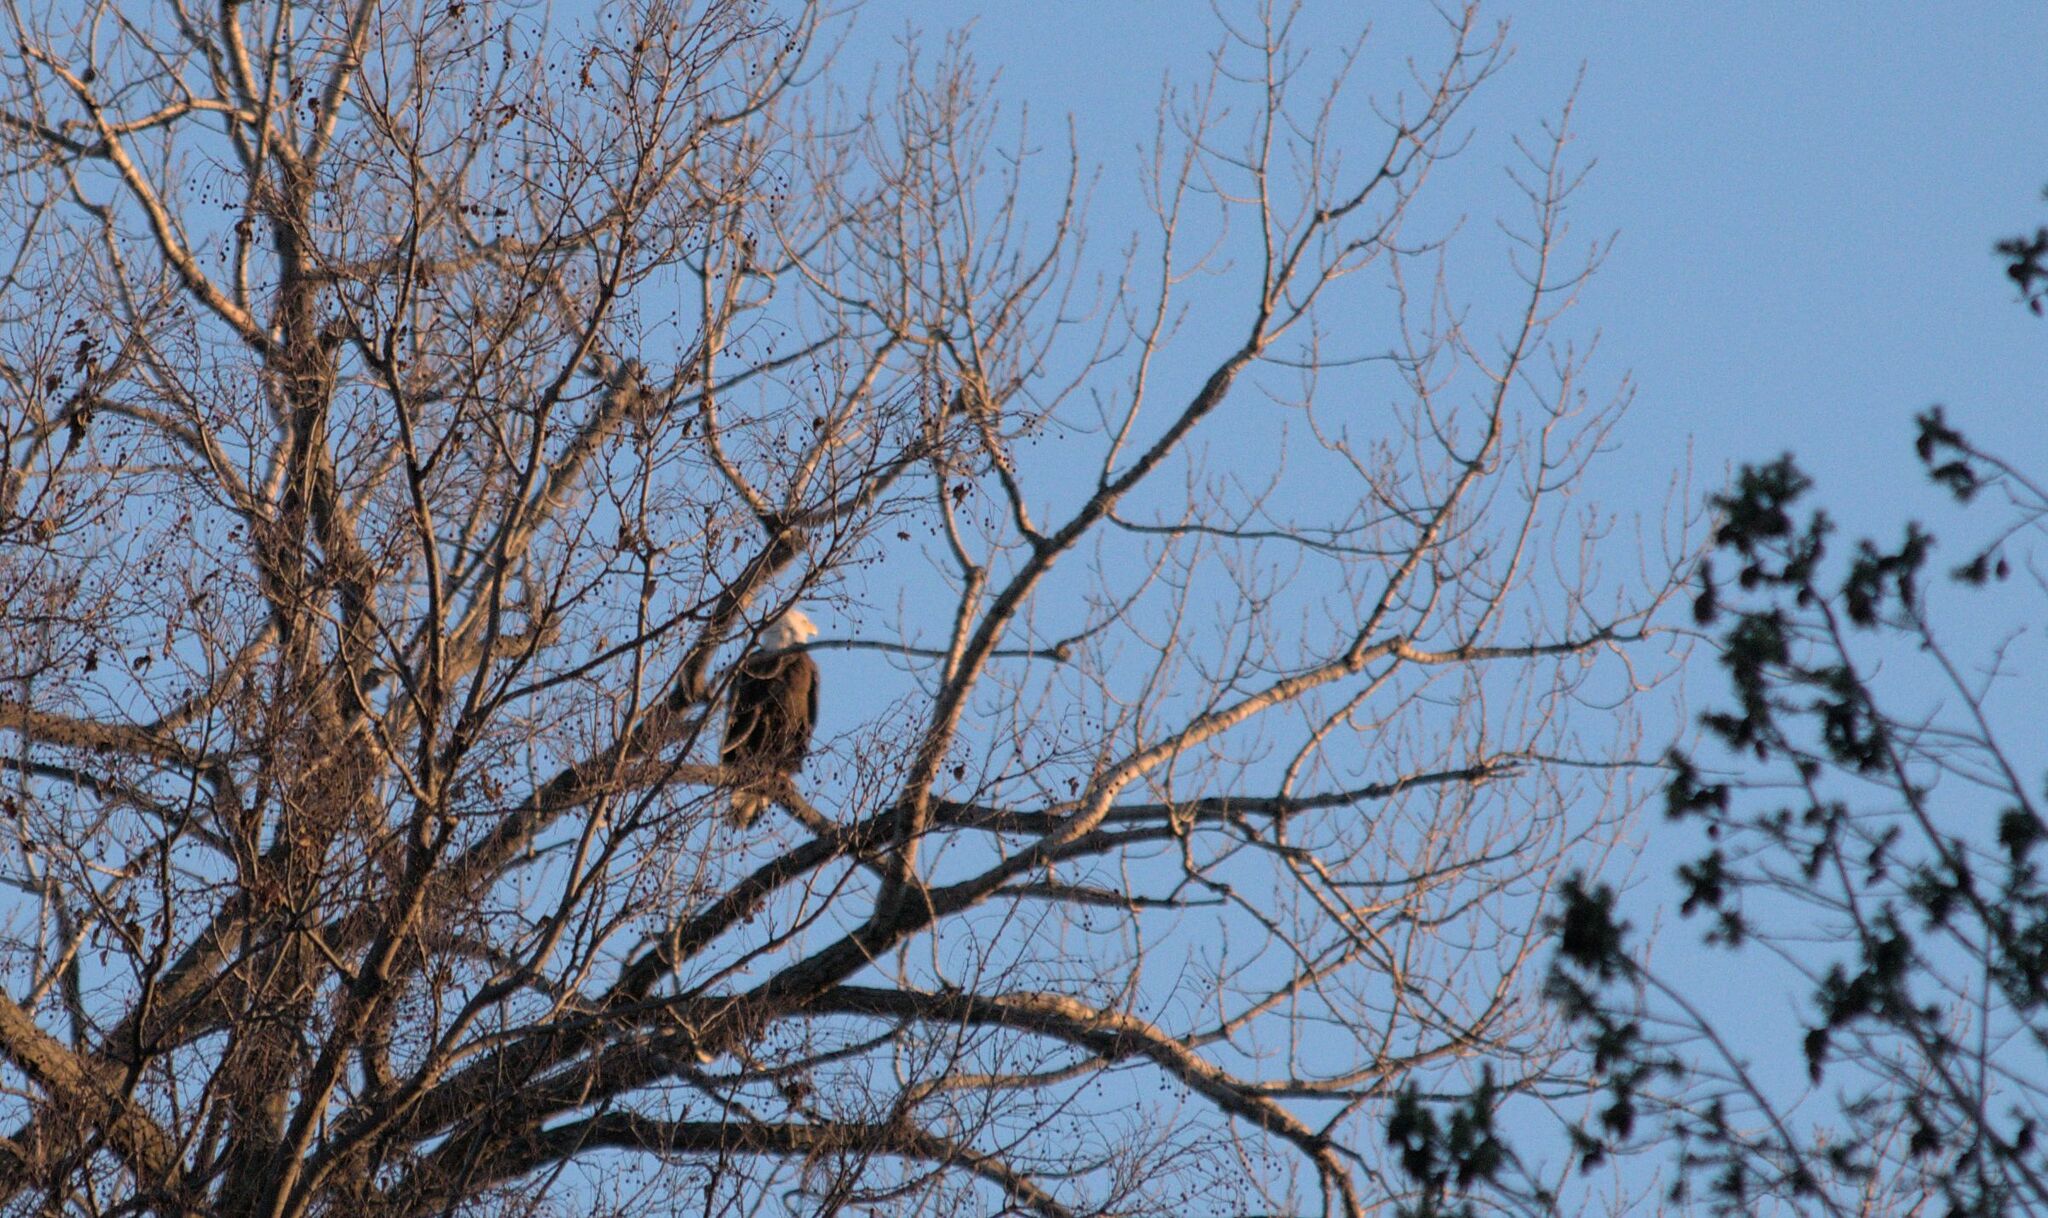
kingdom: Animalia
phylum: Chordata
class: Aves
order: Accipitriformes
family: Accipitridae
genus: Haliaeetus
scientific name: Haliaeetus leucocephalus
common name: Bald eagle
